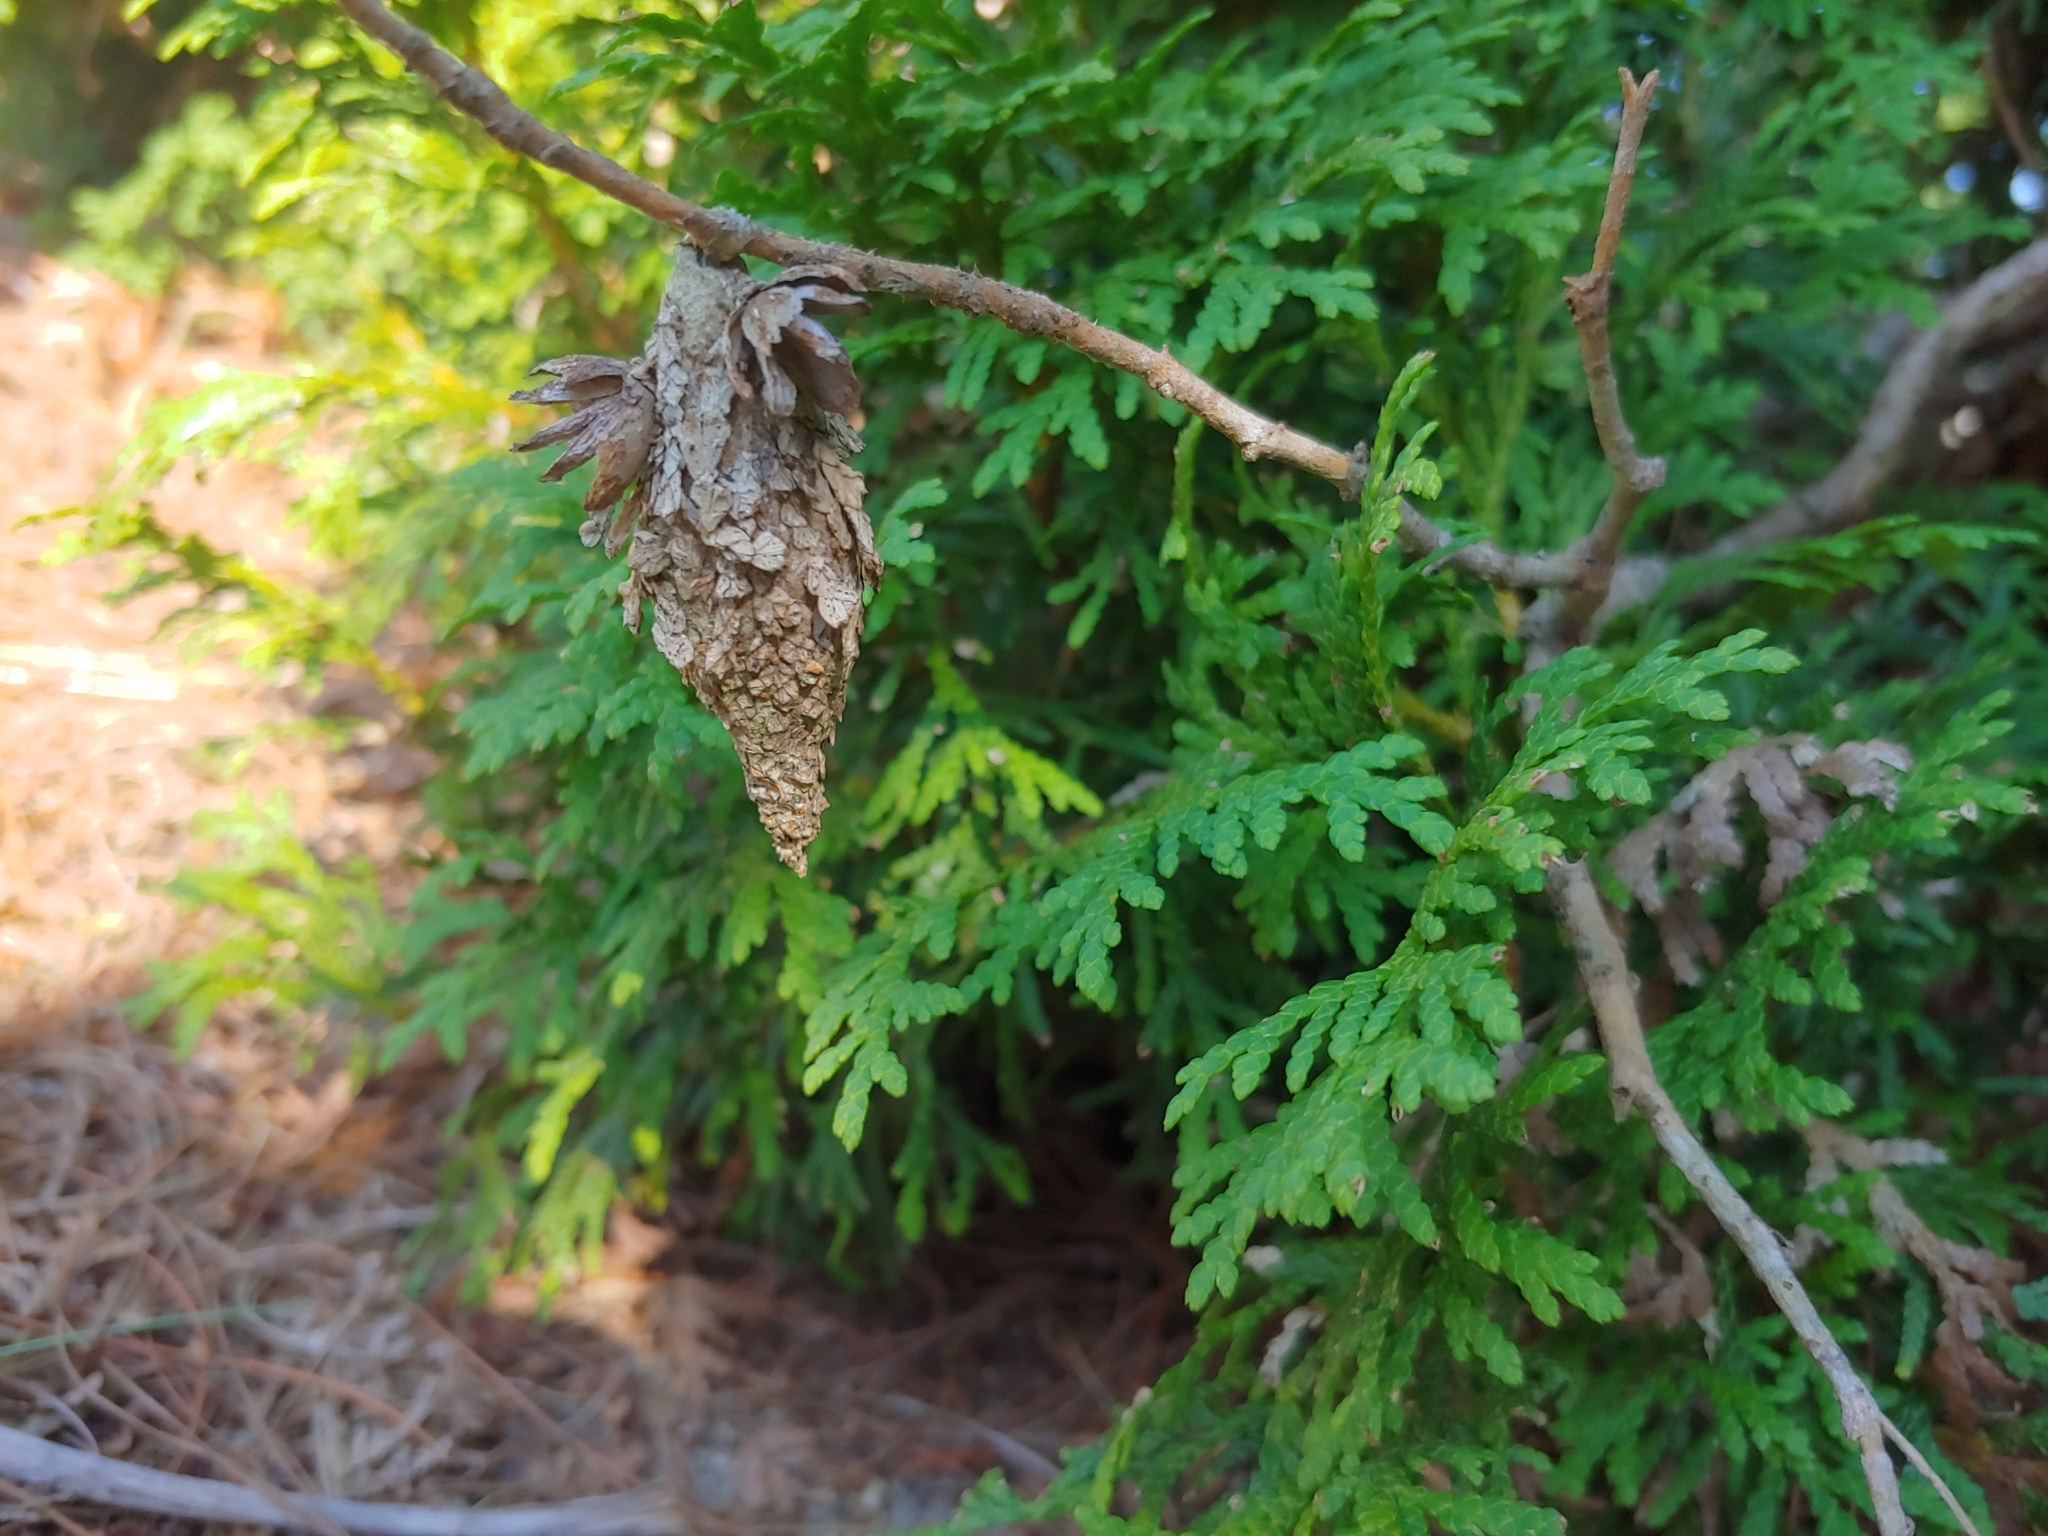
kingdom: Animalia
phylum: Arthropoda
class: Insecta
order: Lepidoptera
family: Psychidae
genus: Thyridopteryx
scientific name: Thyridopteryx ephemeraeformis
